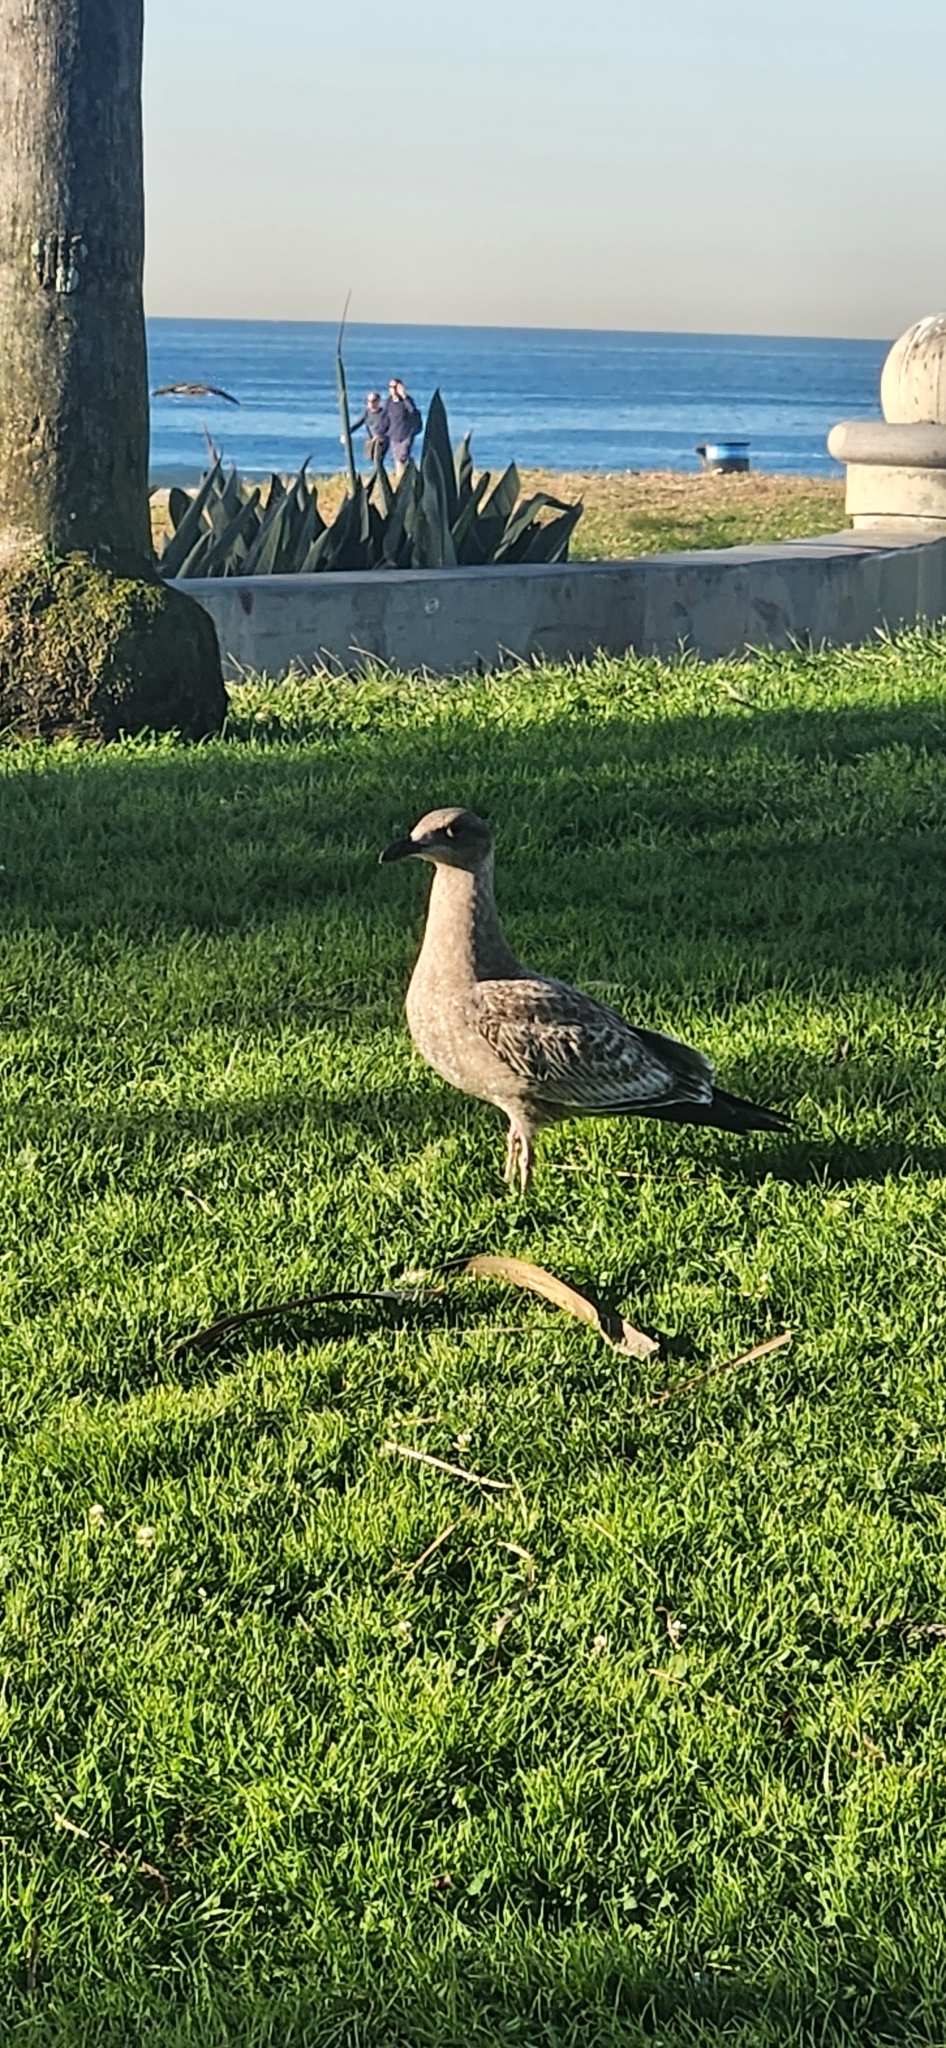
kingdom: Animalia
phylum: Chordata
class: Aves
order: Charadriiformes
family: Laridae
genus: Larus
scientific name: Larus occidentalis
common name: Western gull
